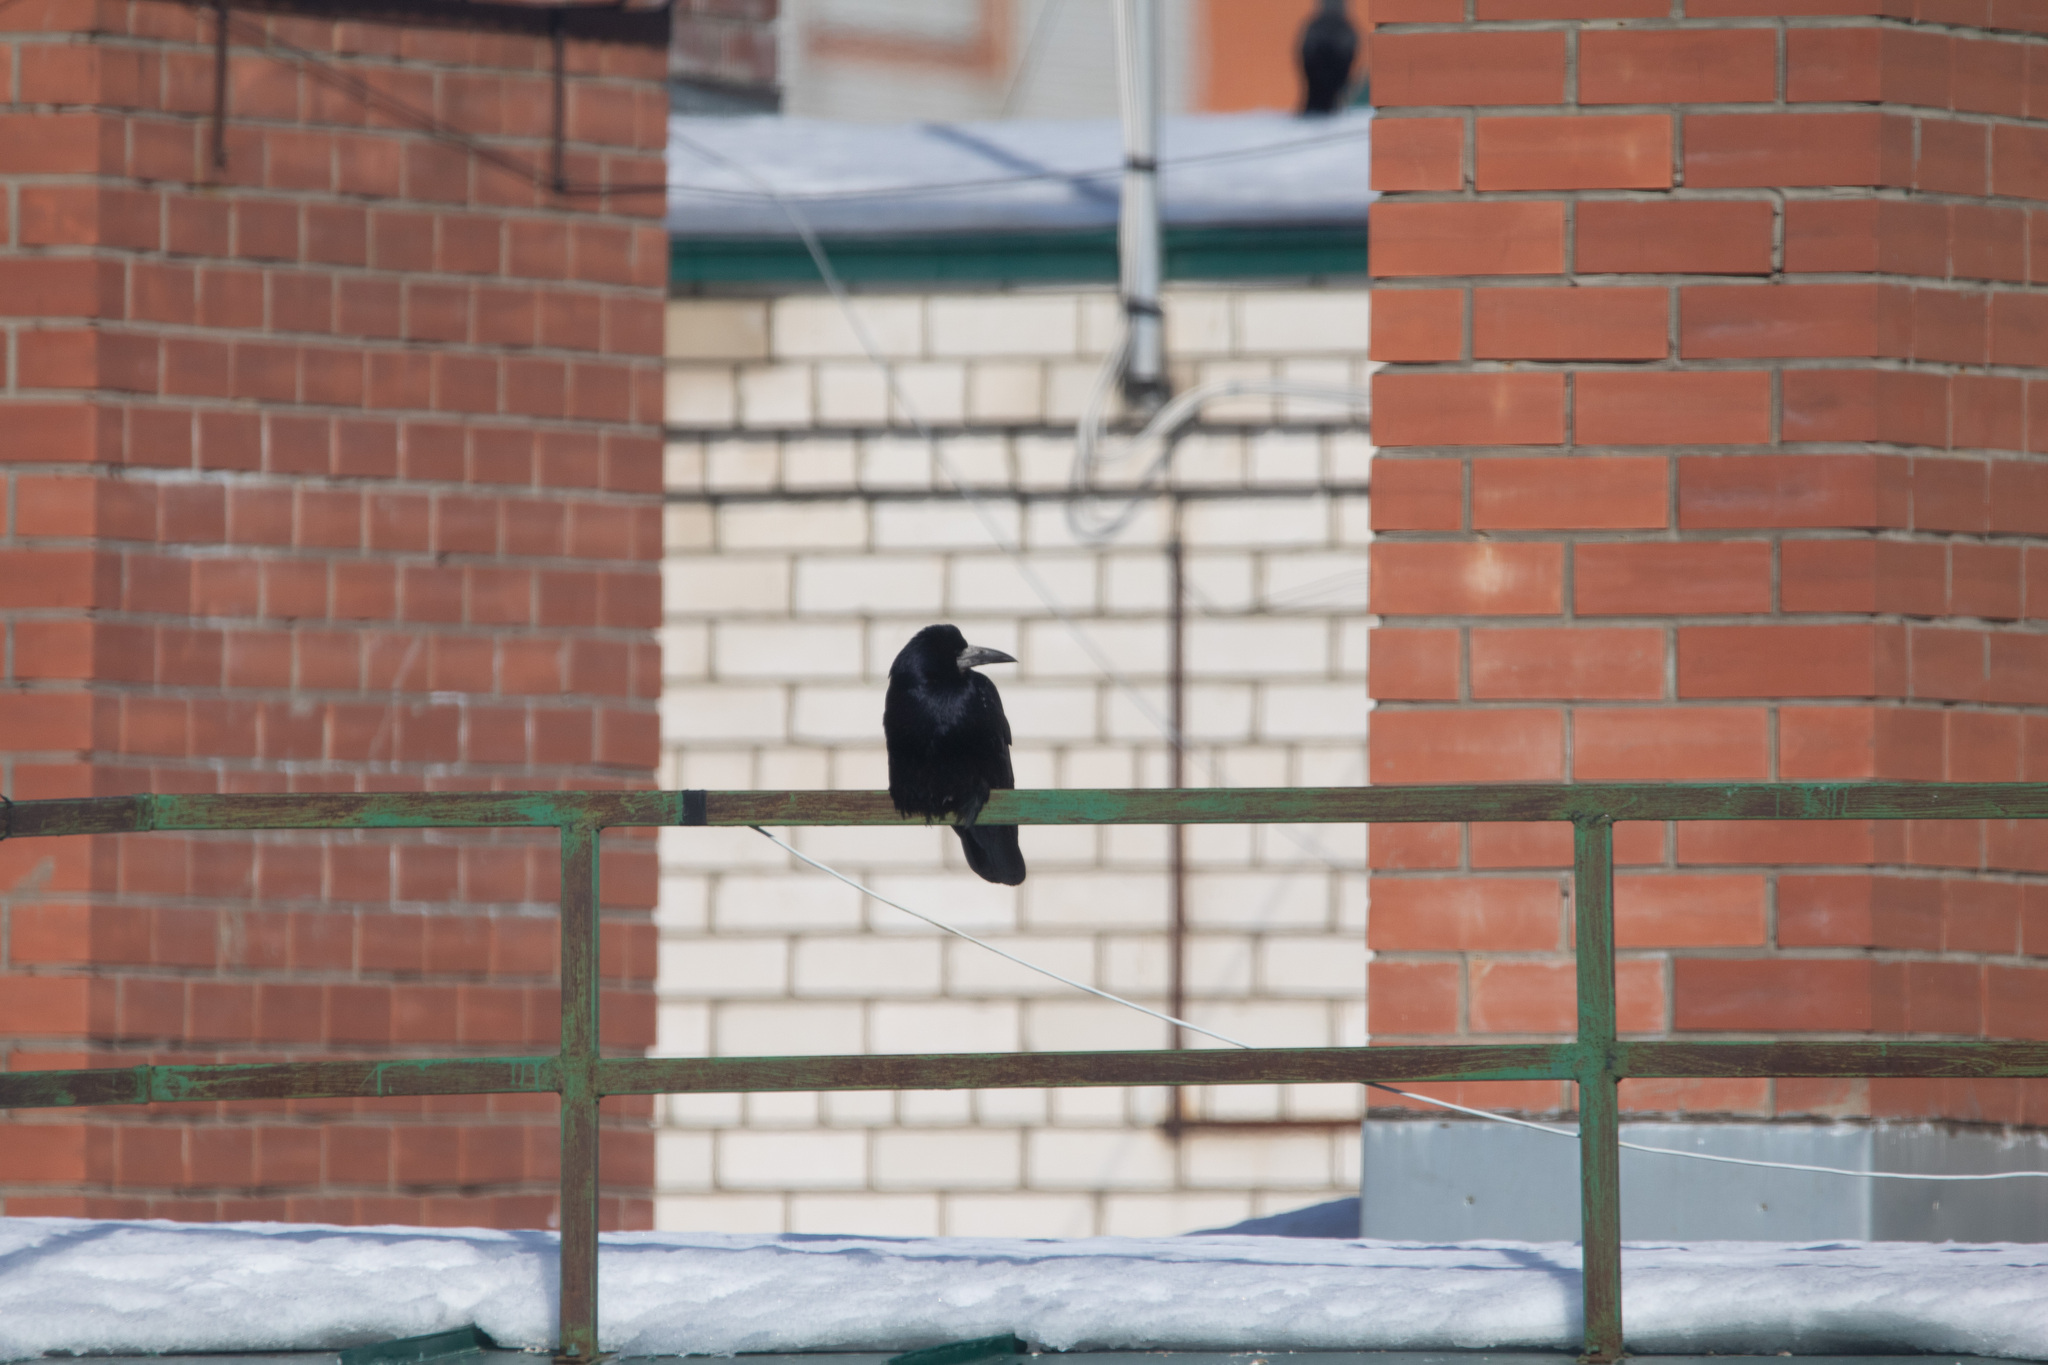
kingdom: Animalia
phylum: Chordata
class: Aves
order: Passeriformes
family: Corvidae
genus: Corvus
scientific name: Corvus frugilegus
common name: Rook
